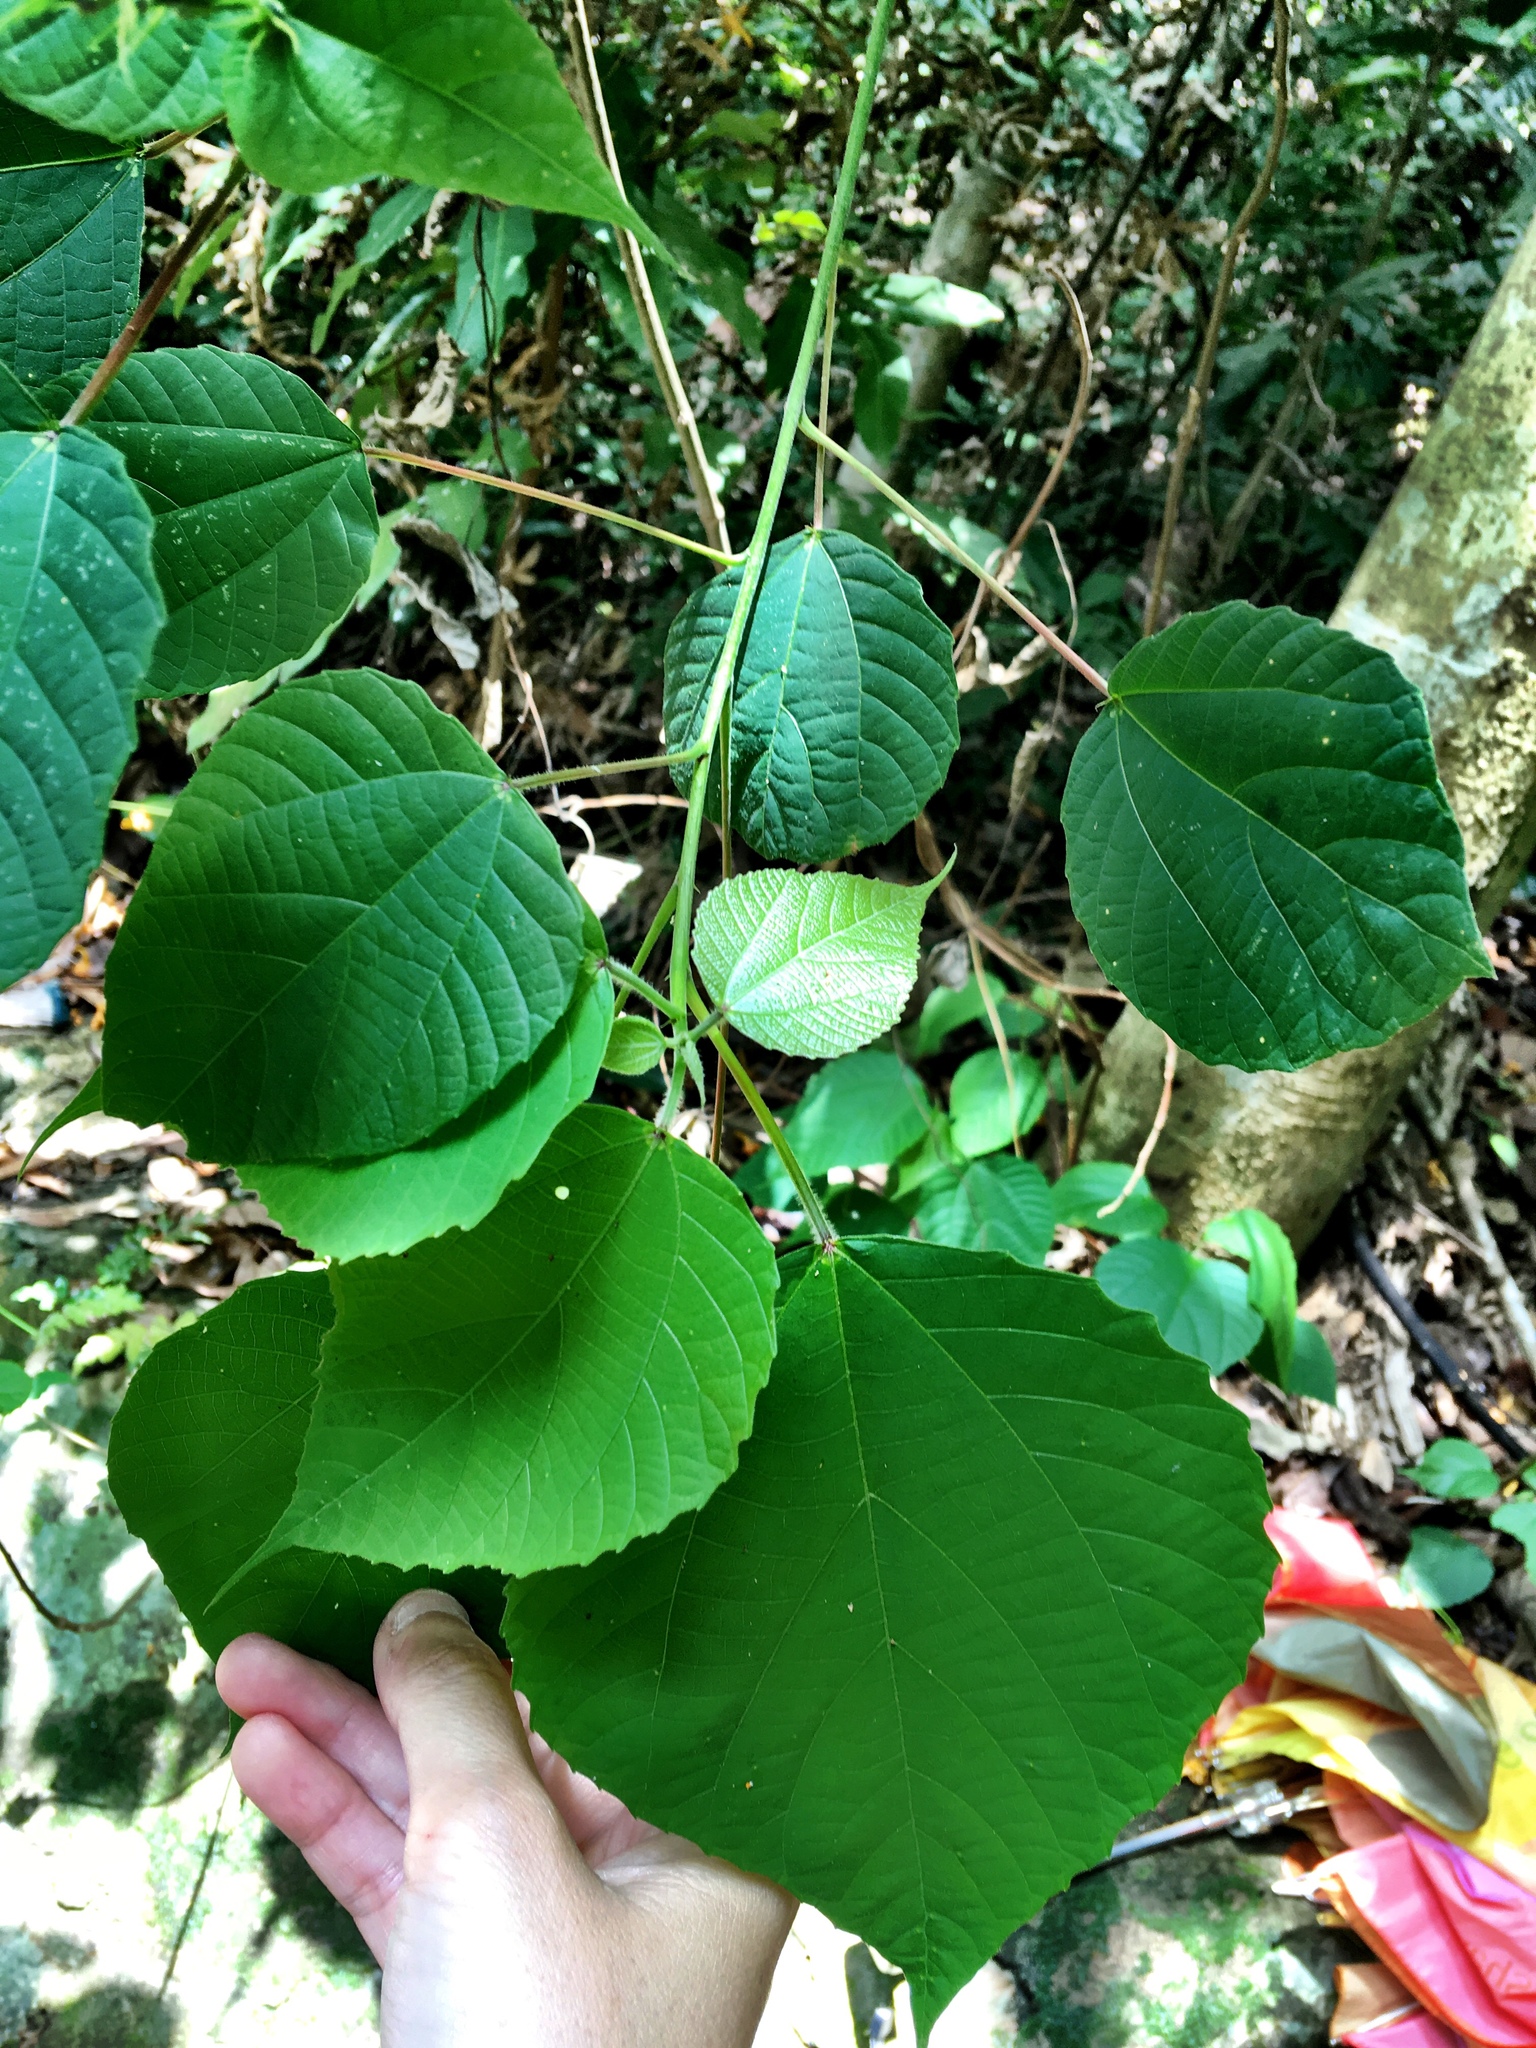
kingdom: Plantae
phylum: Tracheophyta
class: Magnoliopsida
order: Malpighiales
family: Euphorbiaceae
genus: Alchornea
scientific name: Alchornea trewioides
